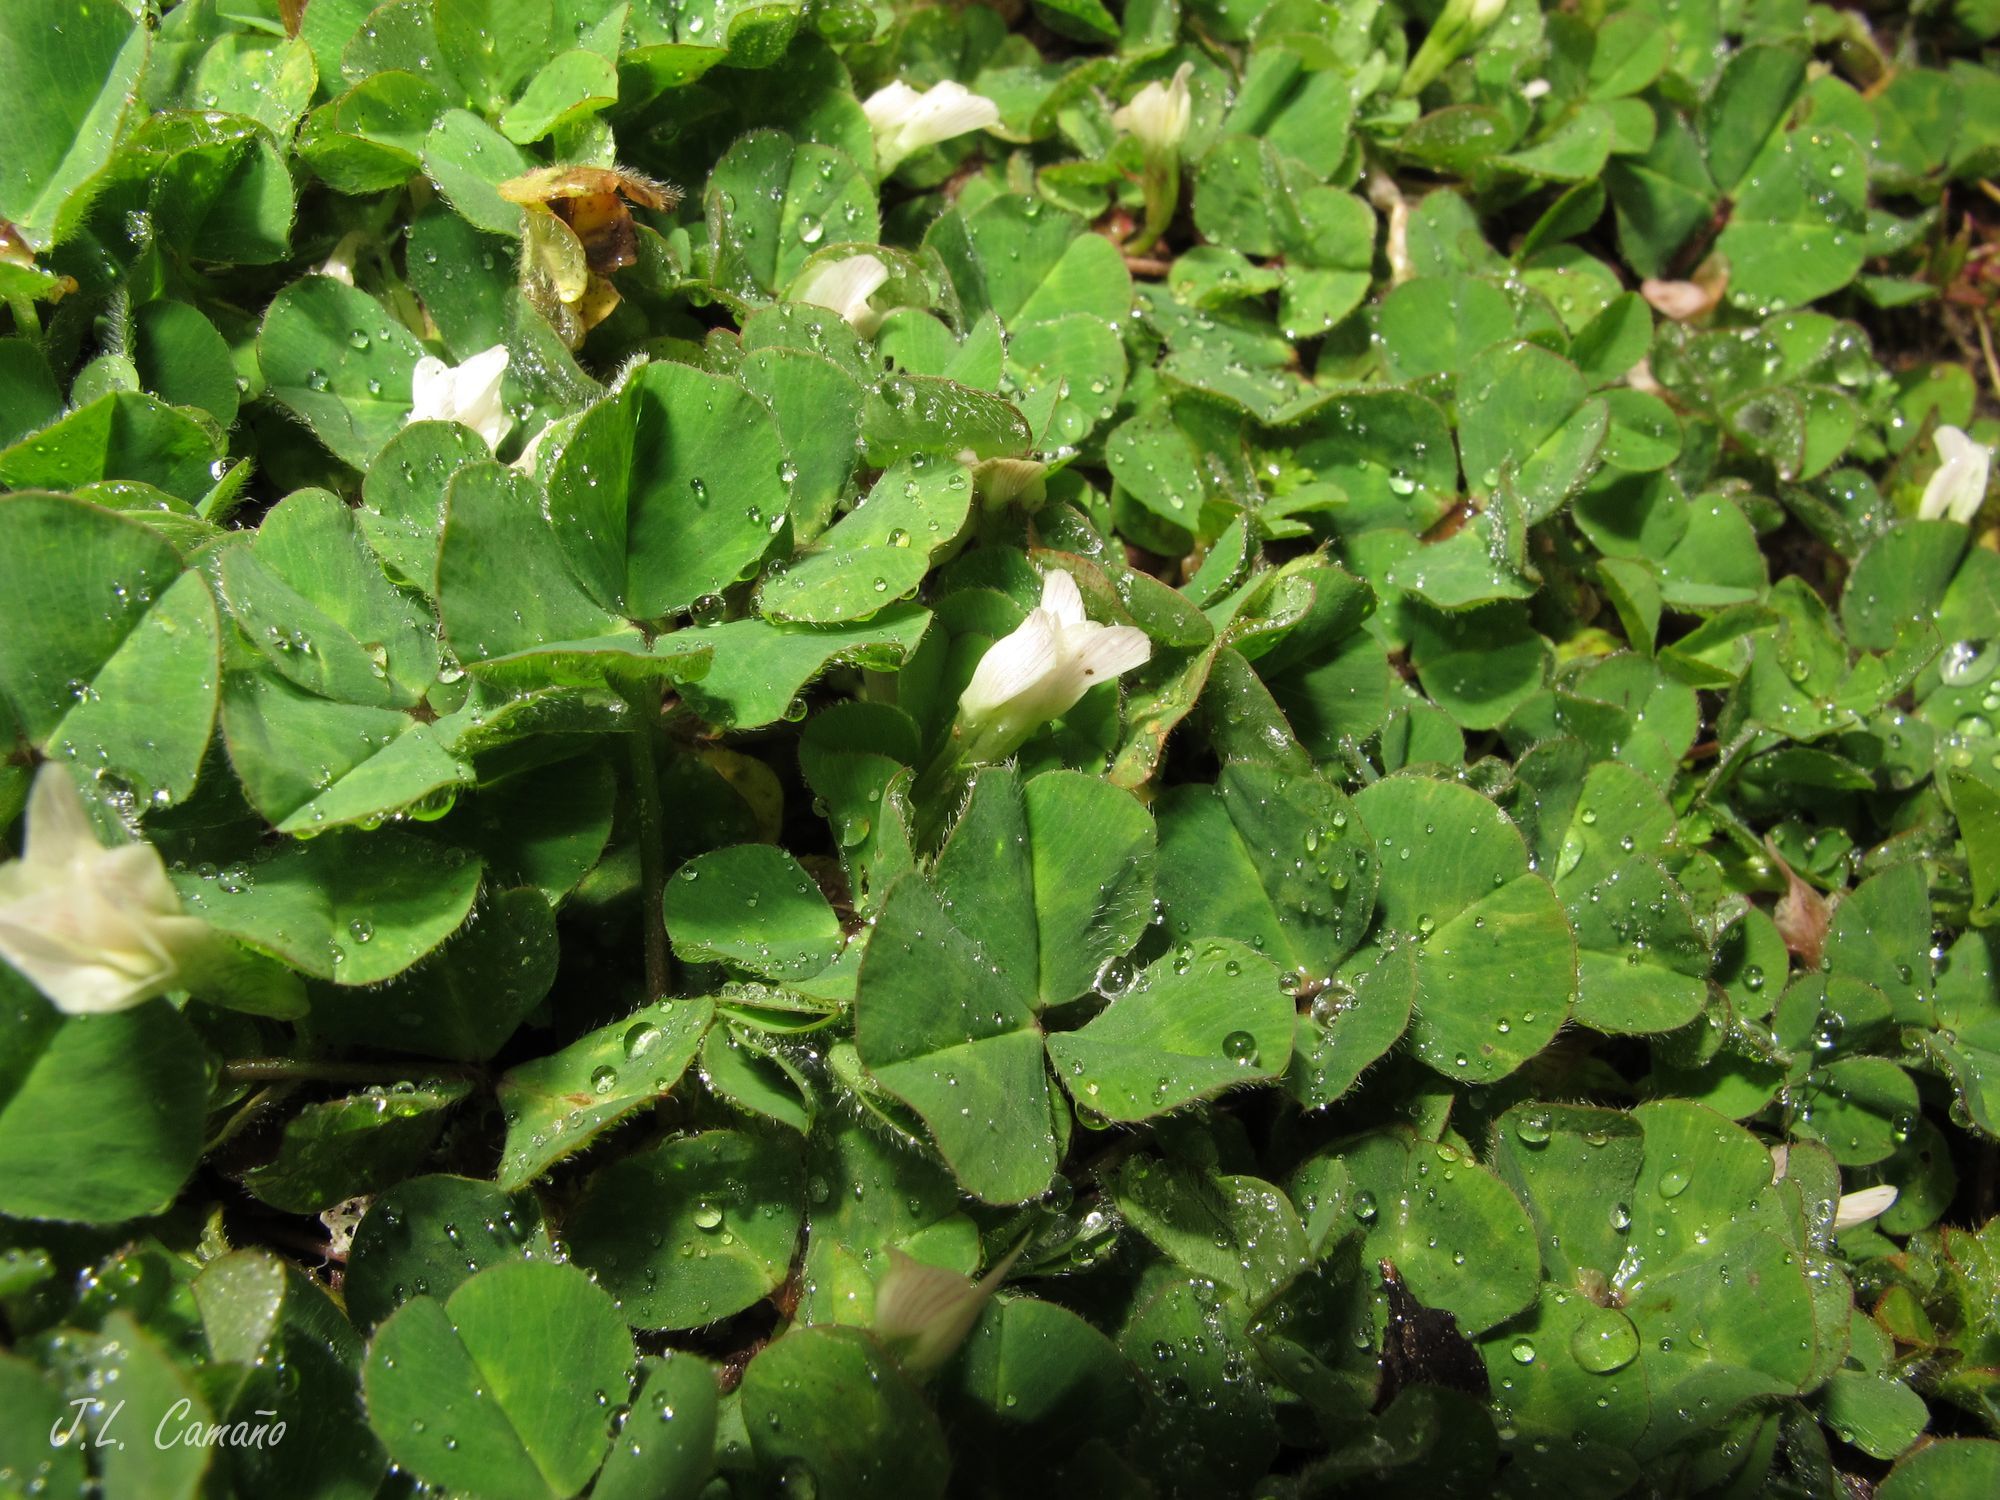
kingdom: Plantae
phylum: Tracheophyta
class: Magnoliopsida
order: Fabales
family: Fabaceae
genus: Trifolium
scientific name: Trifolium subterraneum
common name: Subterranean clover
